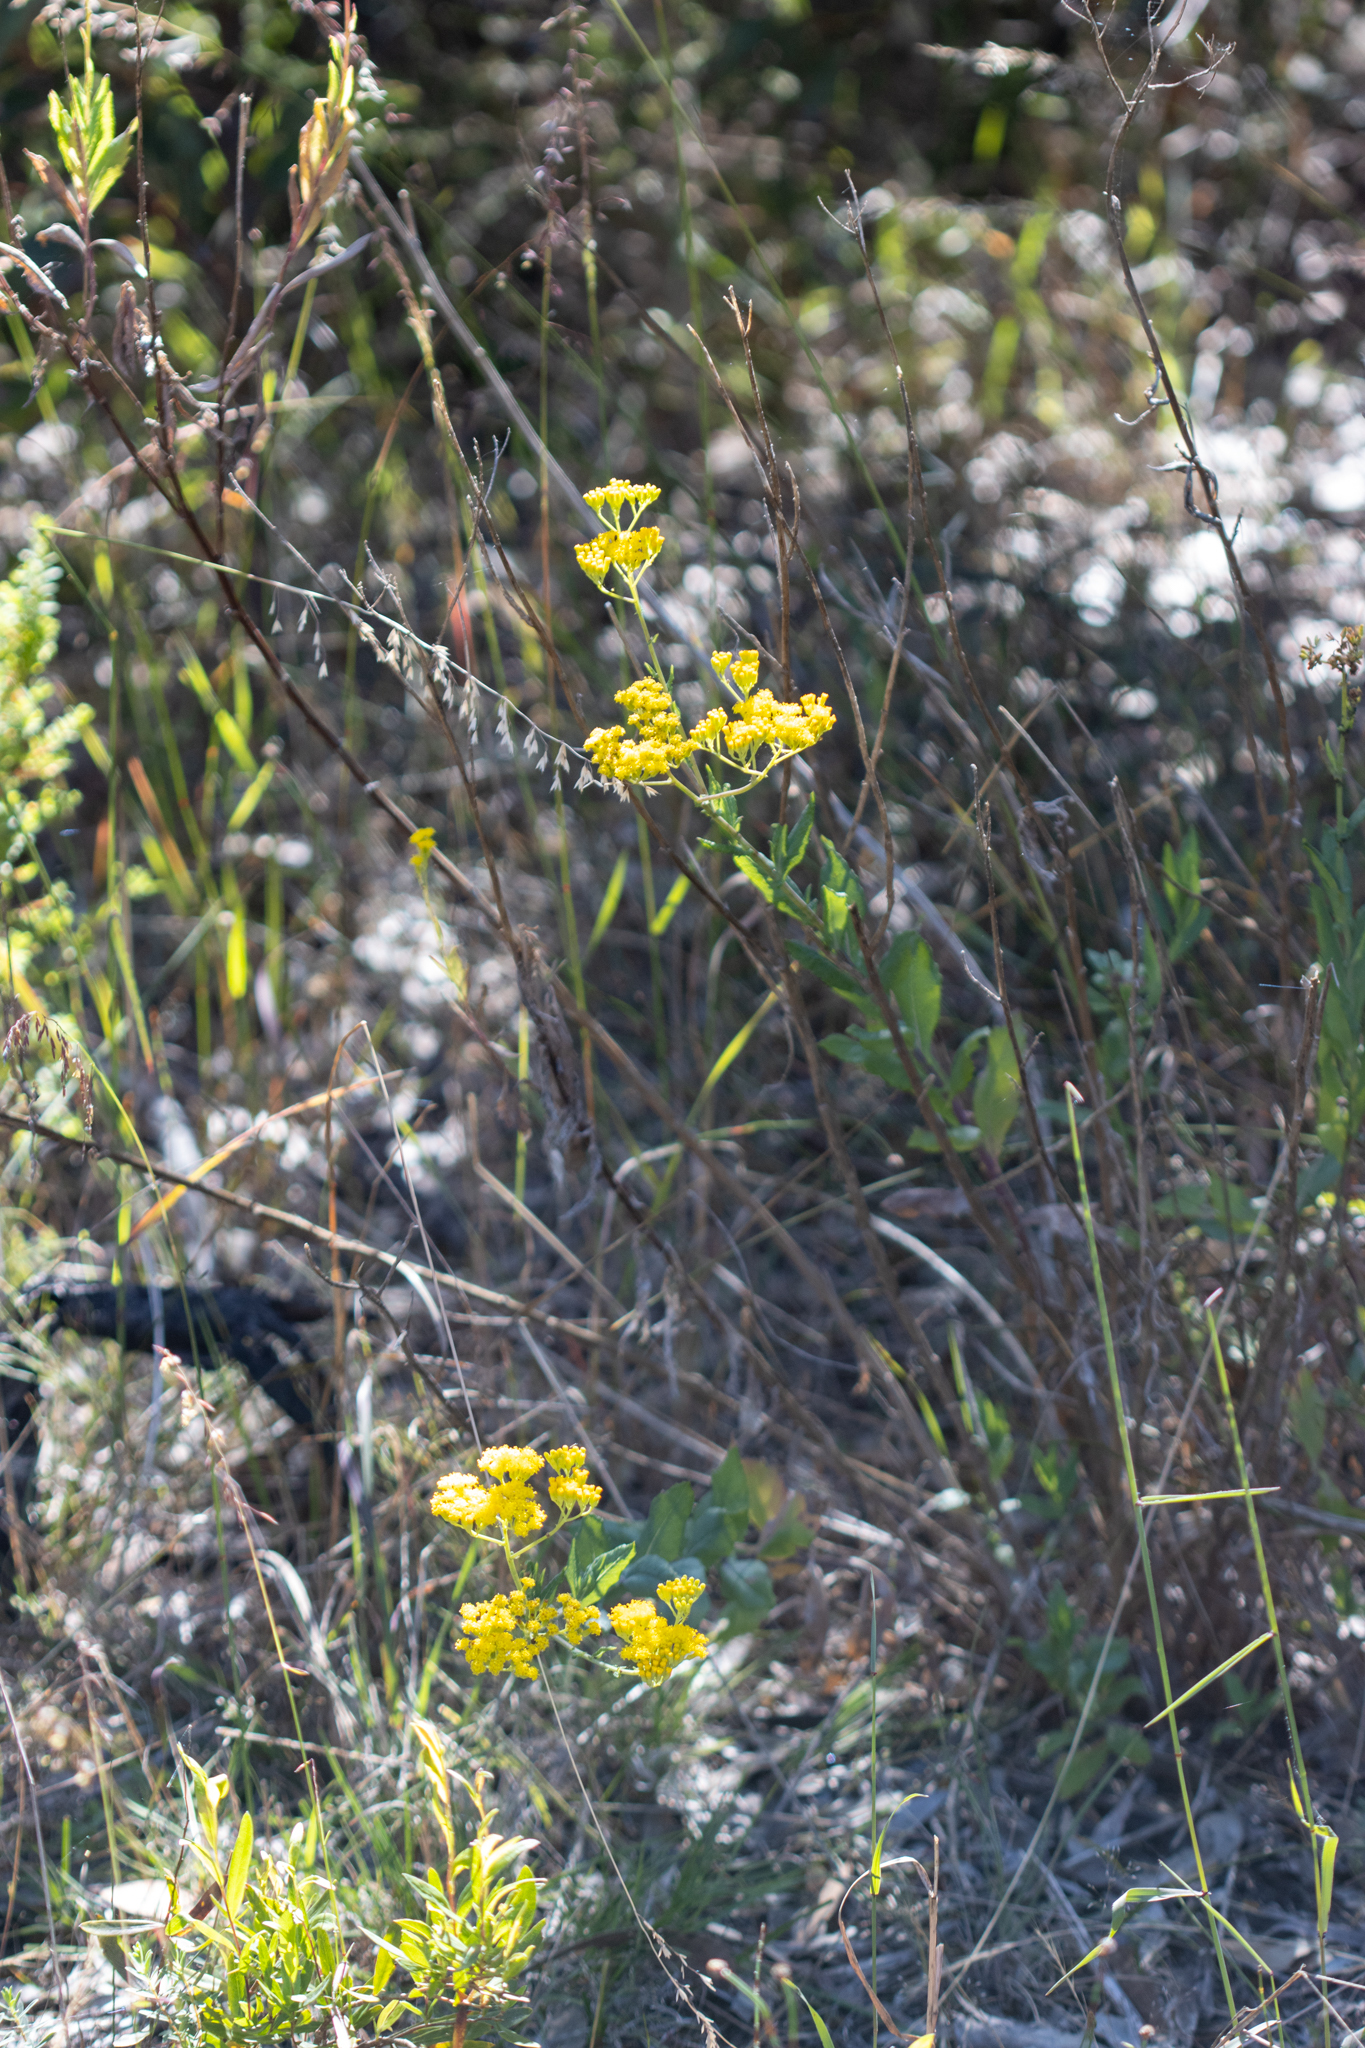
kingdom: Plantae
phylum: Tracheophyta
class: Magnoliopsida
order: Asterales
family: Asteraceae
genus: Senecio
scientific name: Senecio odoratus
